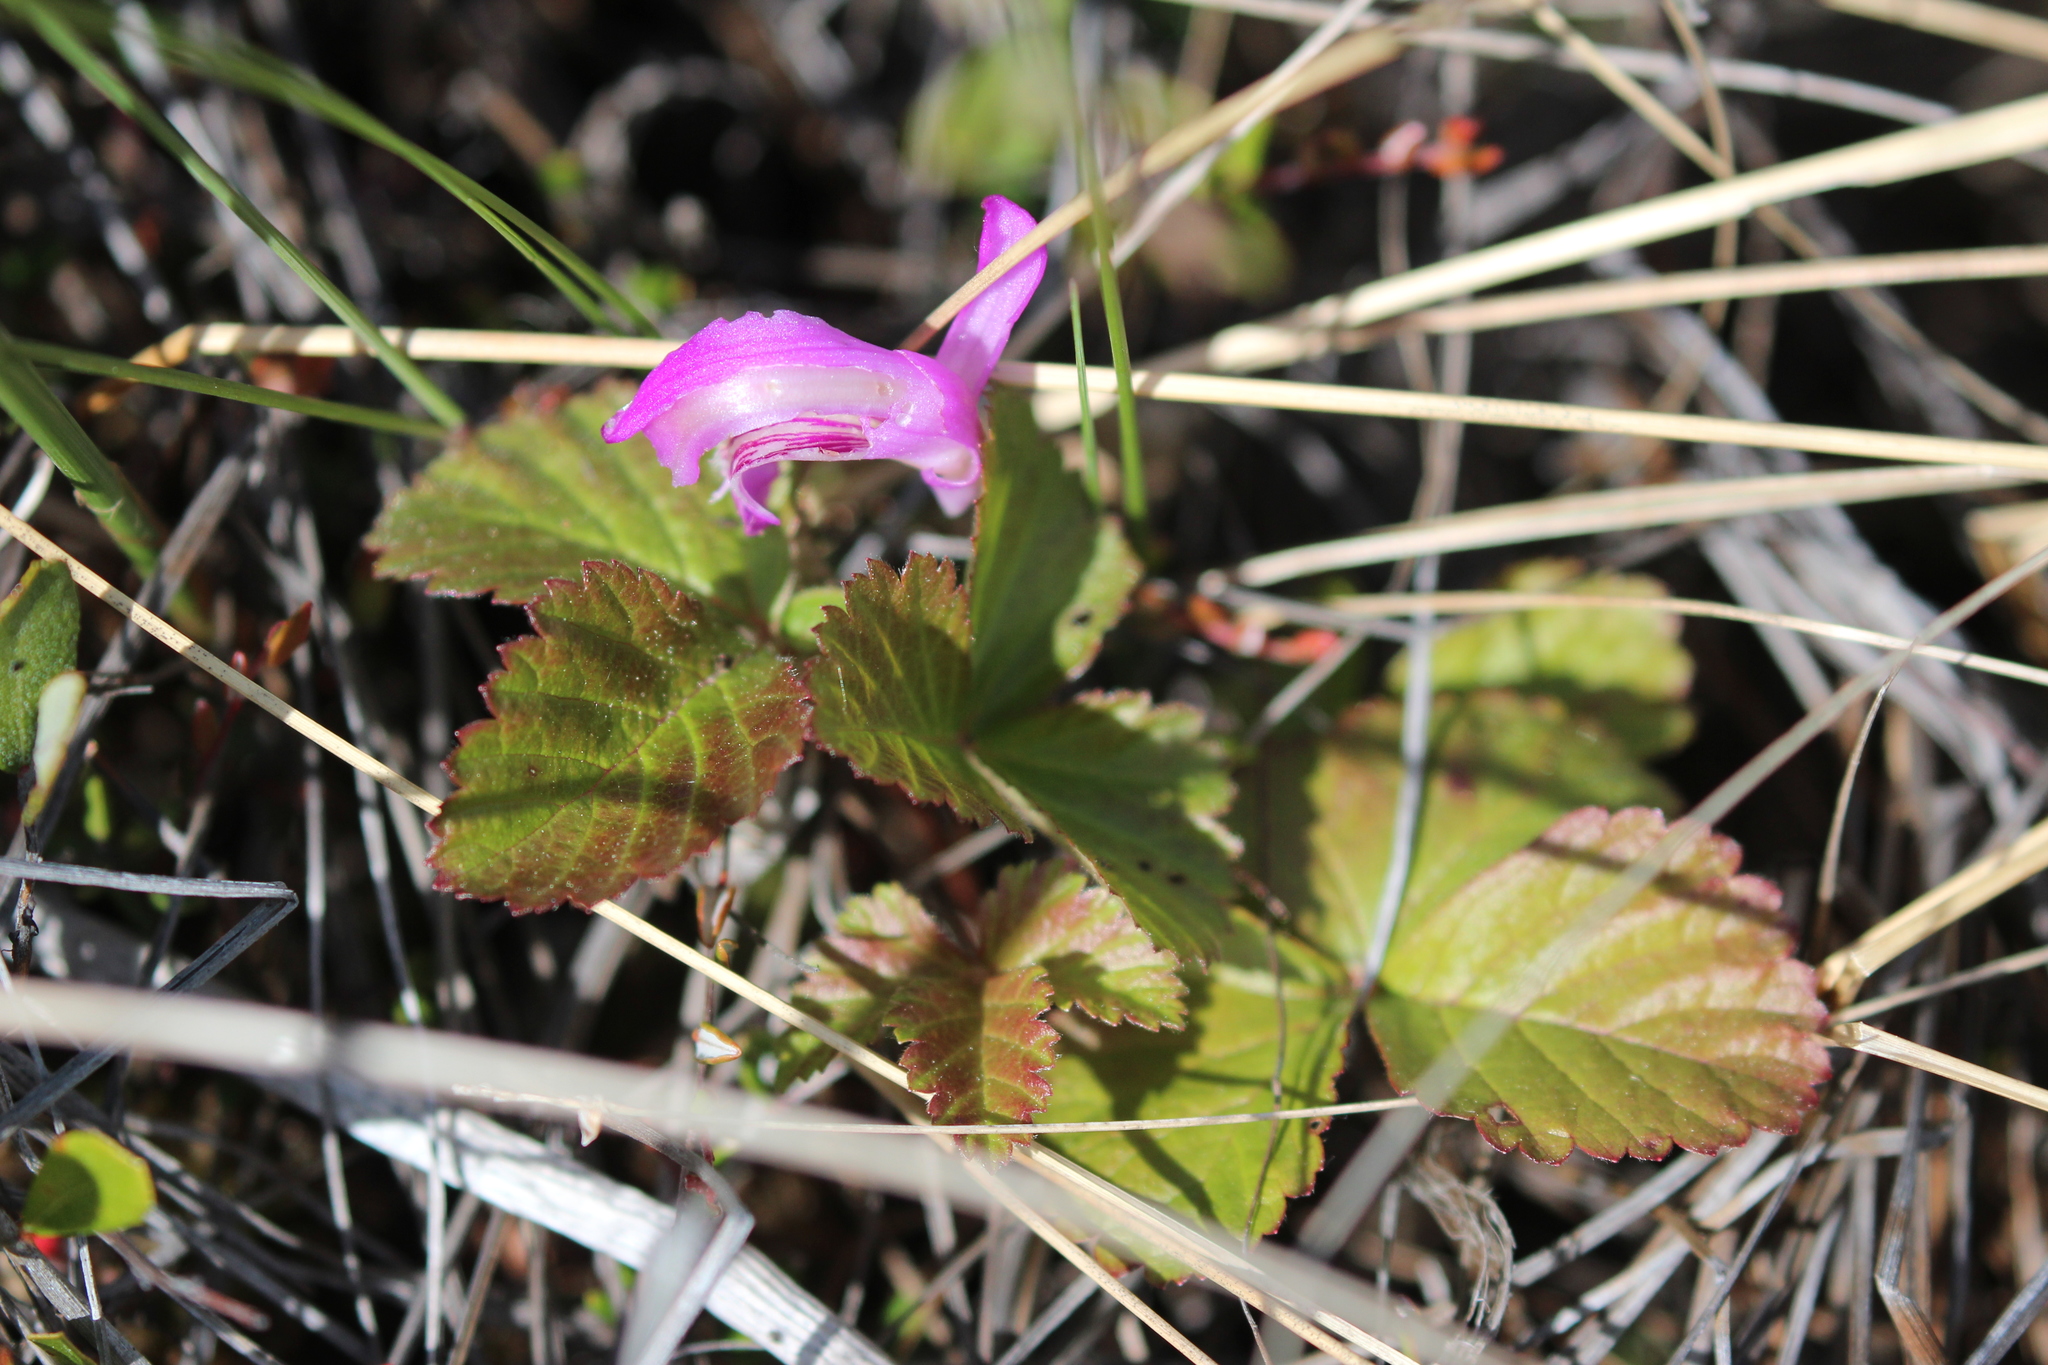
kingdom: Plantae
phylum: Tracheophyta
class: Magnoliopsida
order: Rosales
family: Rosaceae
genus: Rubus
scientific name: Rubus arcticus
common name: Arctic bramble
